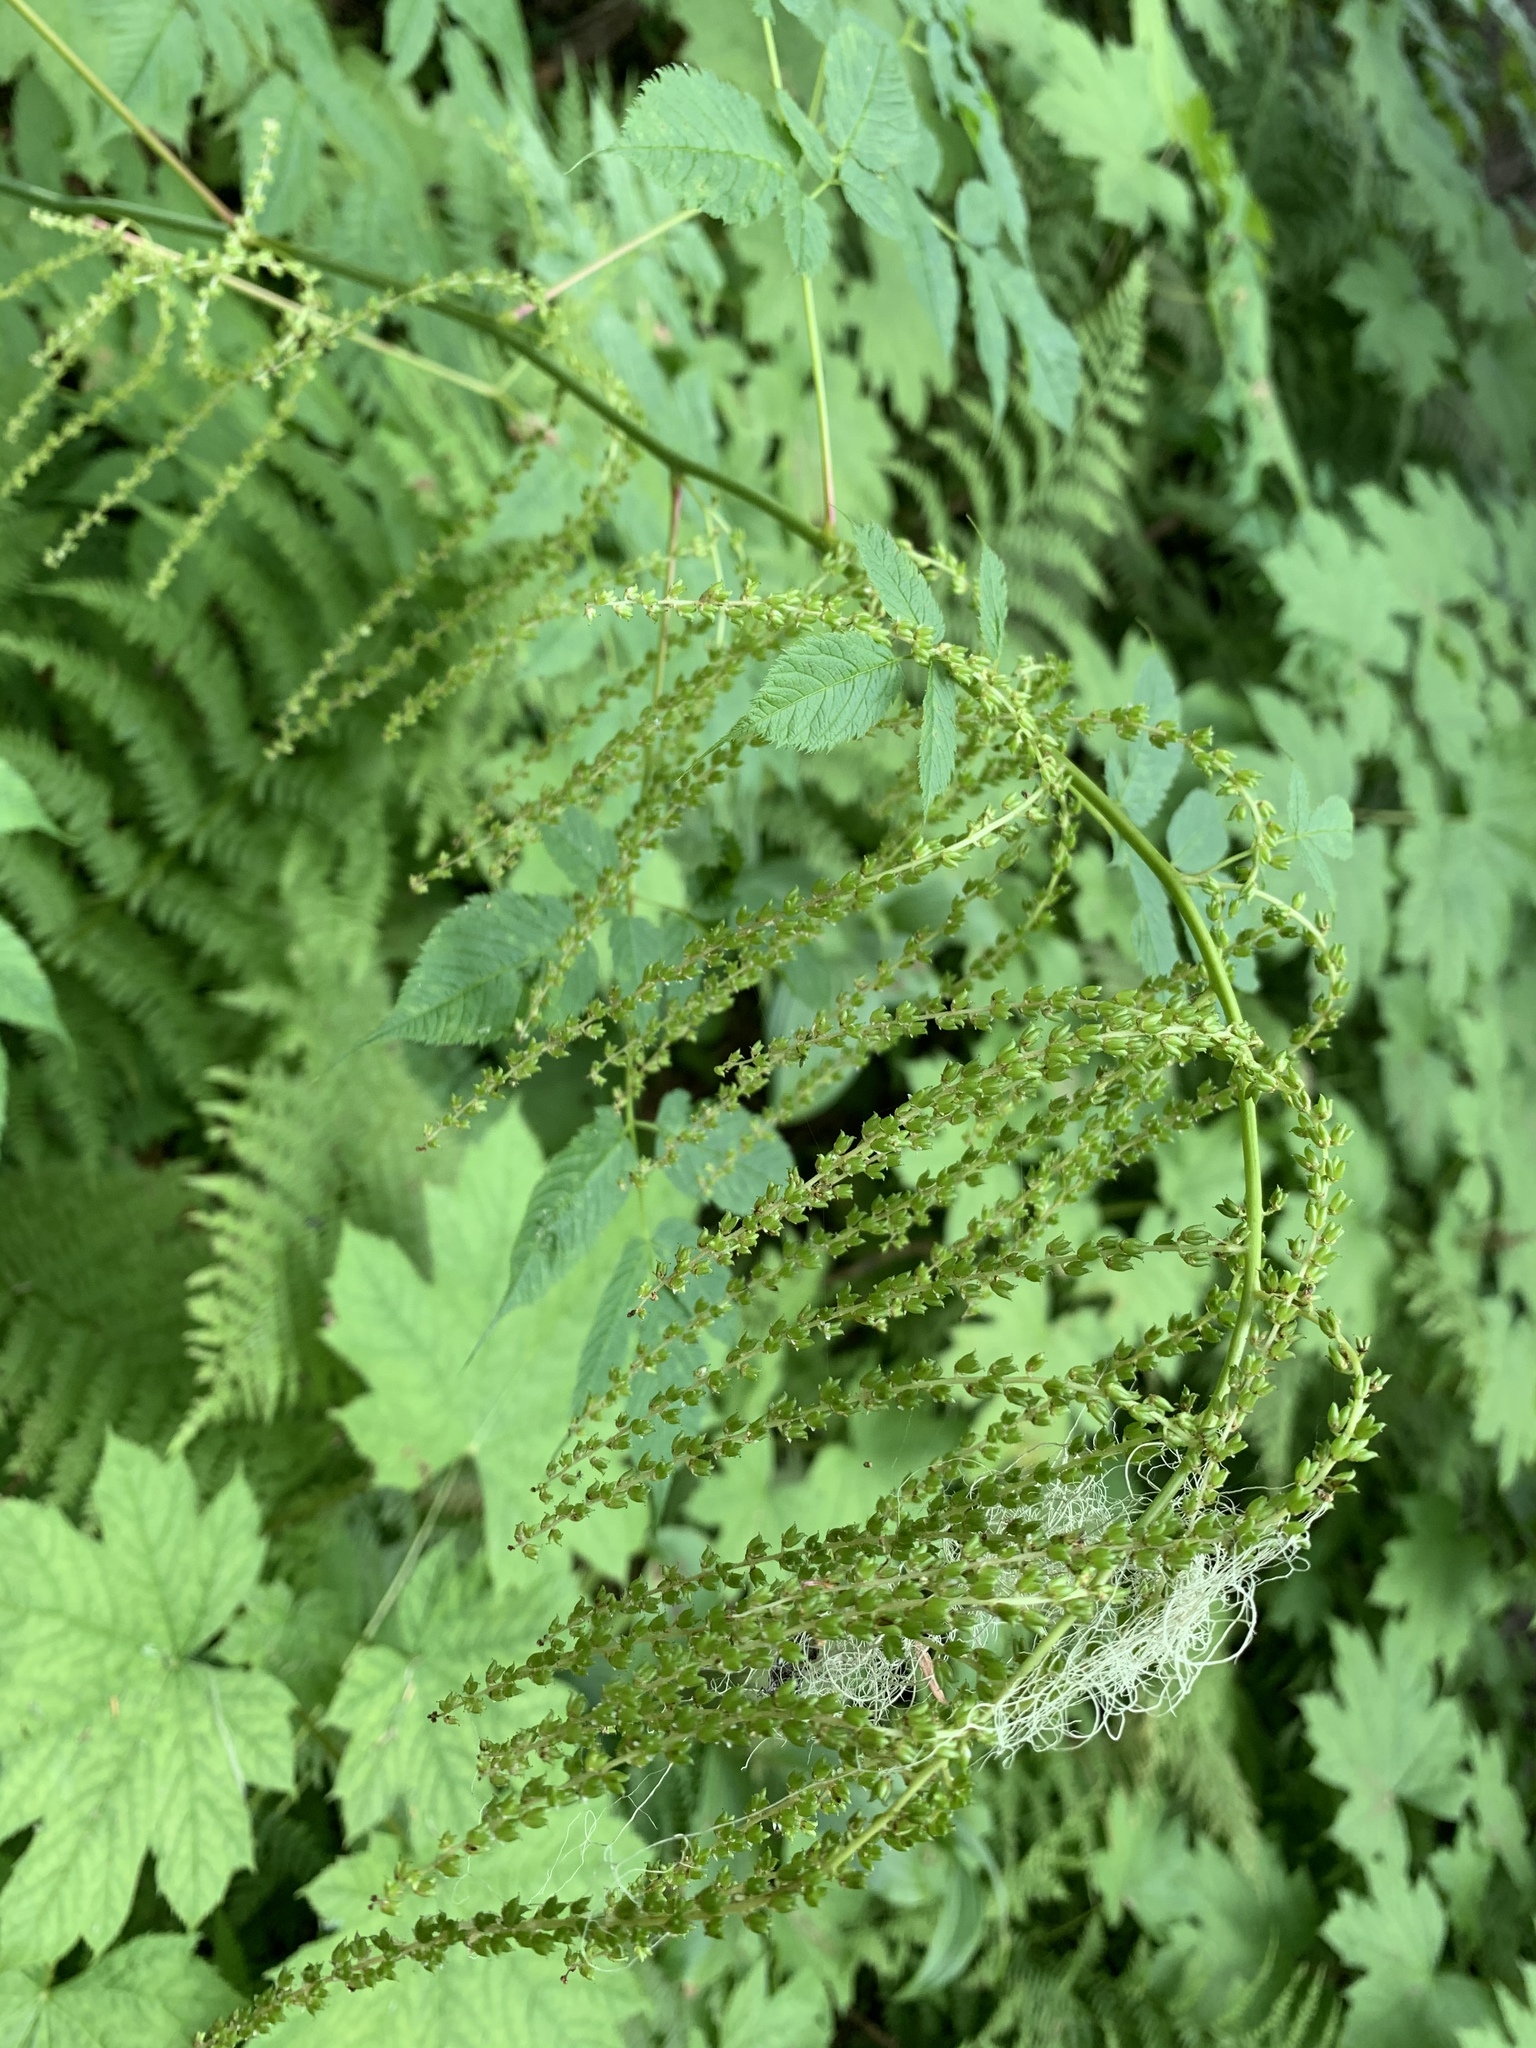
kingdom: Plantae
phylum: Tracheophyta
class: Magnoliopsida
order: Rosales
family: Rosaceae
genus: Aruncus
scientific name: Aruncus dioicus
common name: Buck's-beard
